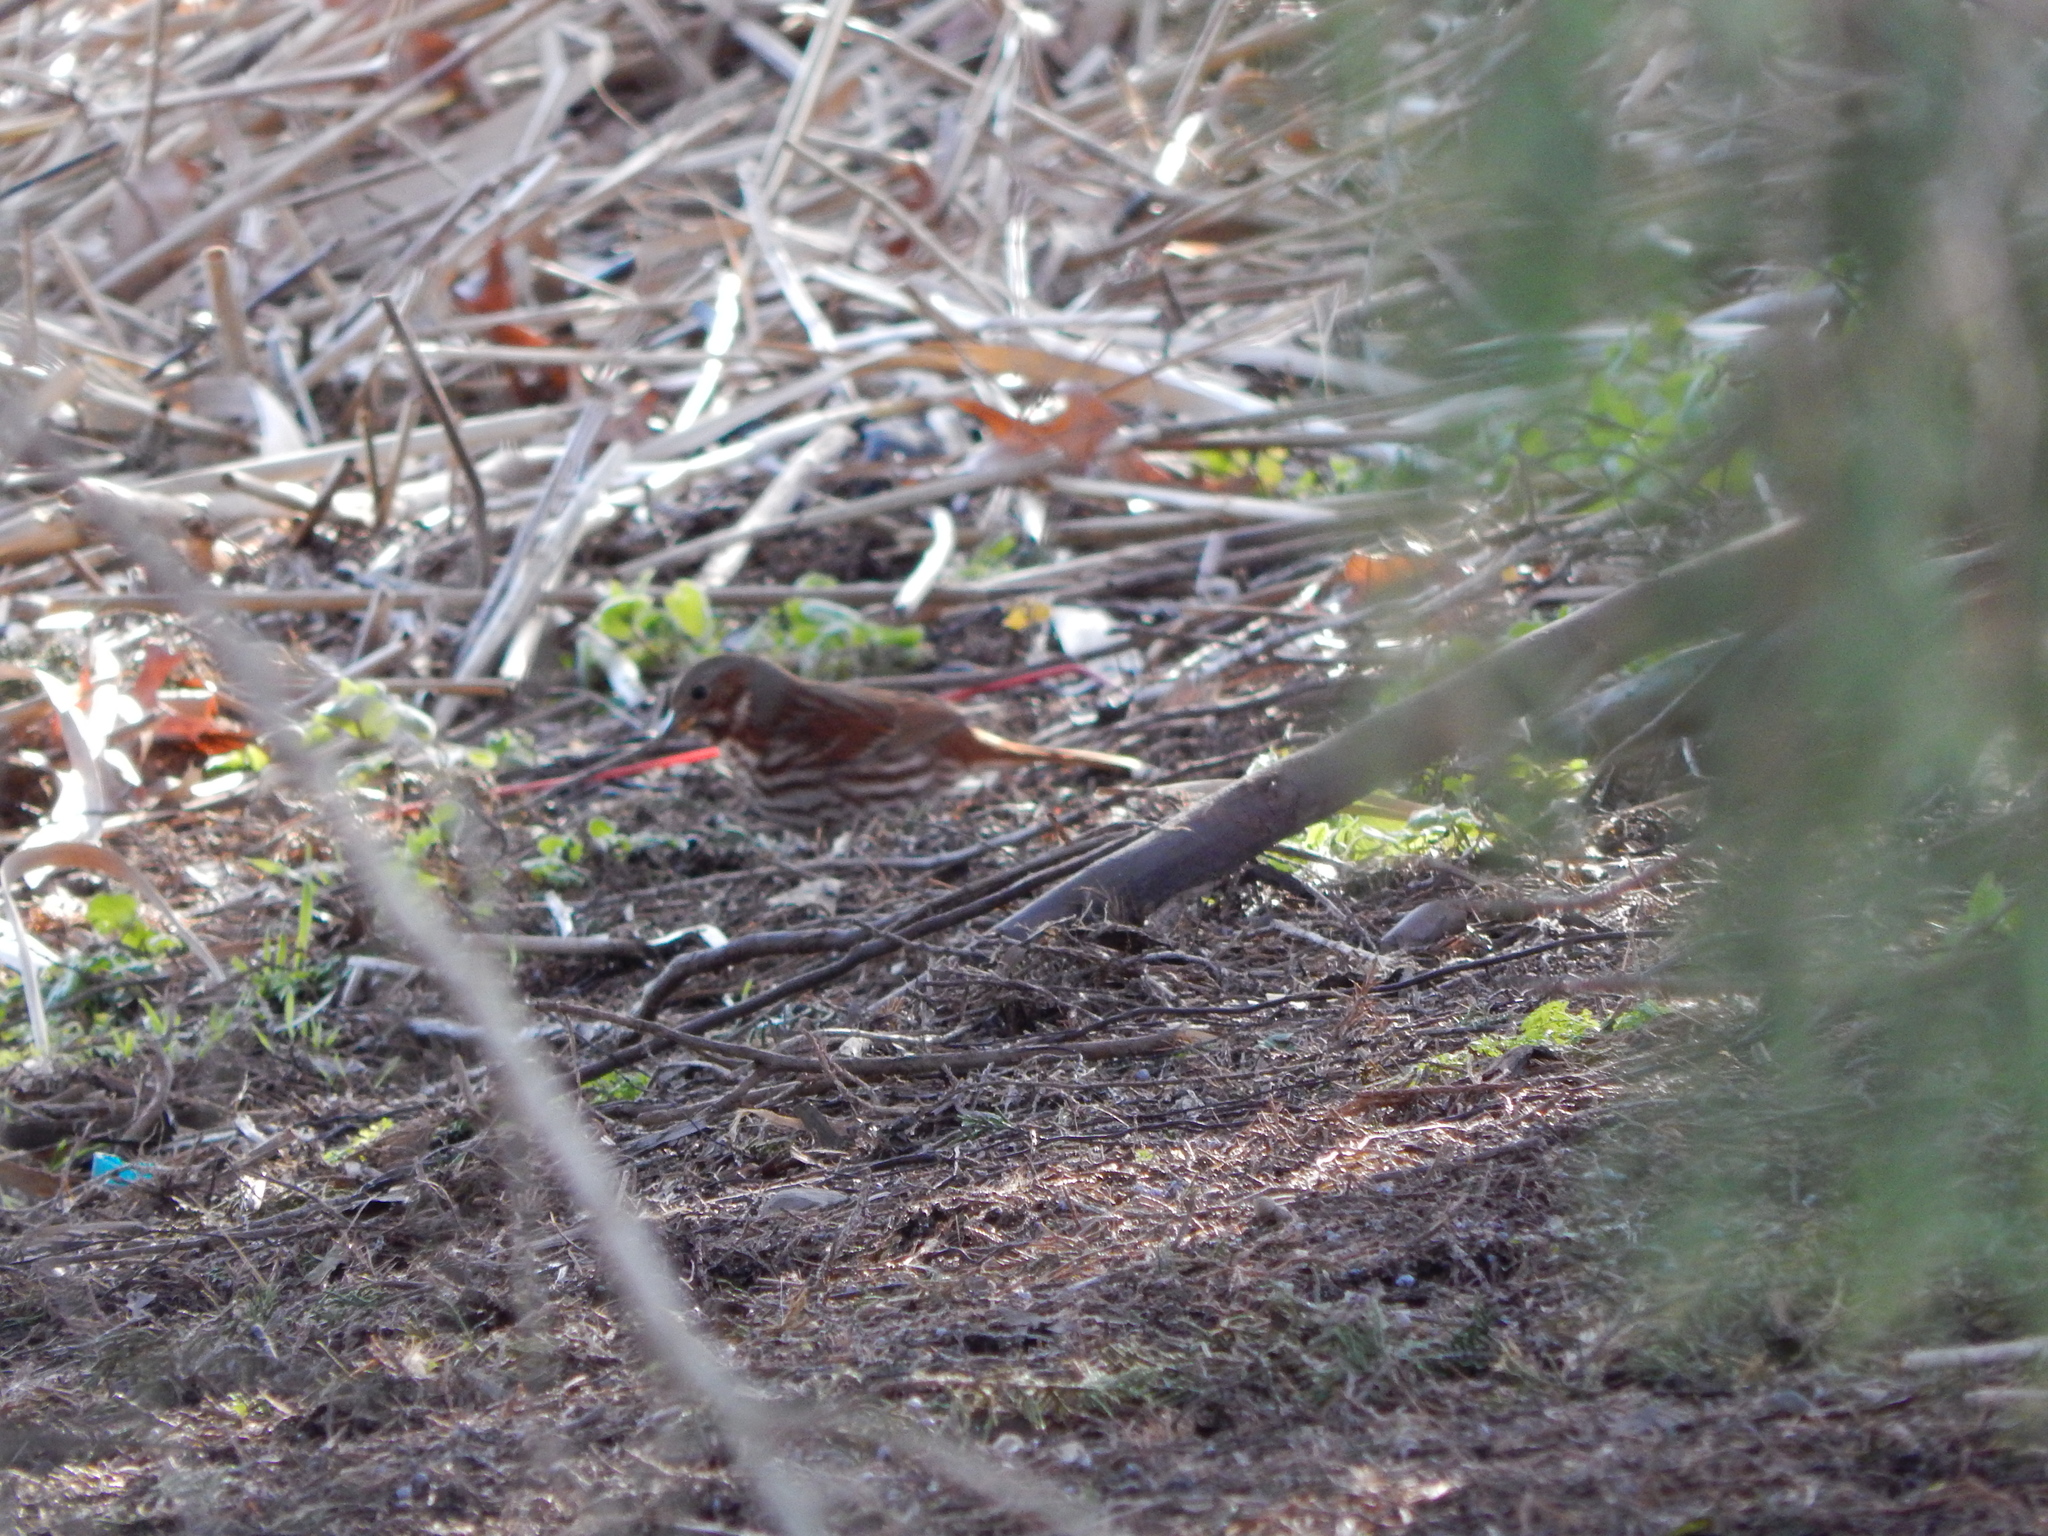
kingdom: Animalia
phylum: Chordata
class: Aves
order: Passeriformes
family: Passerellidae
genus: Passerella
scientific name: Passerella iliaca
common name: Fox sparrow
